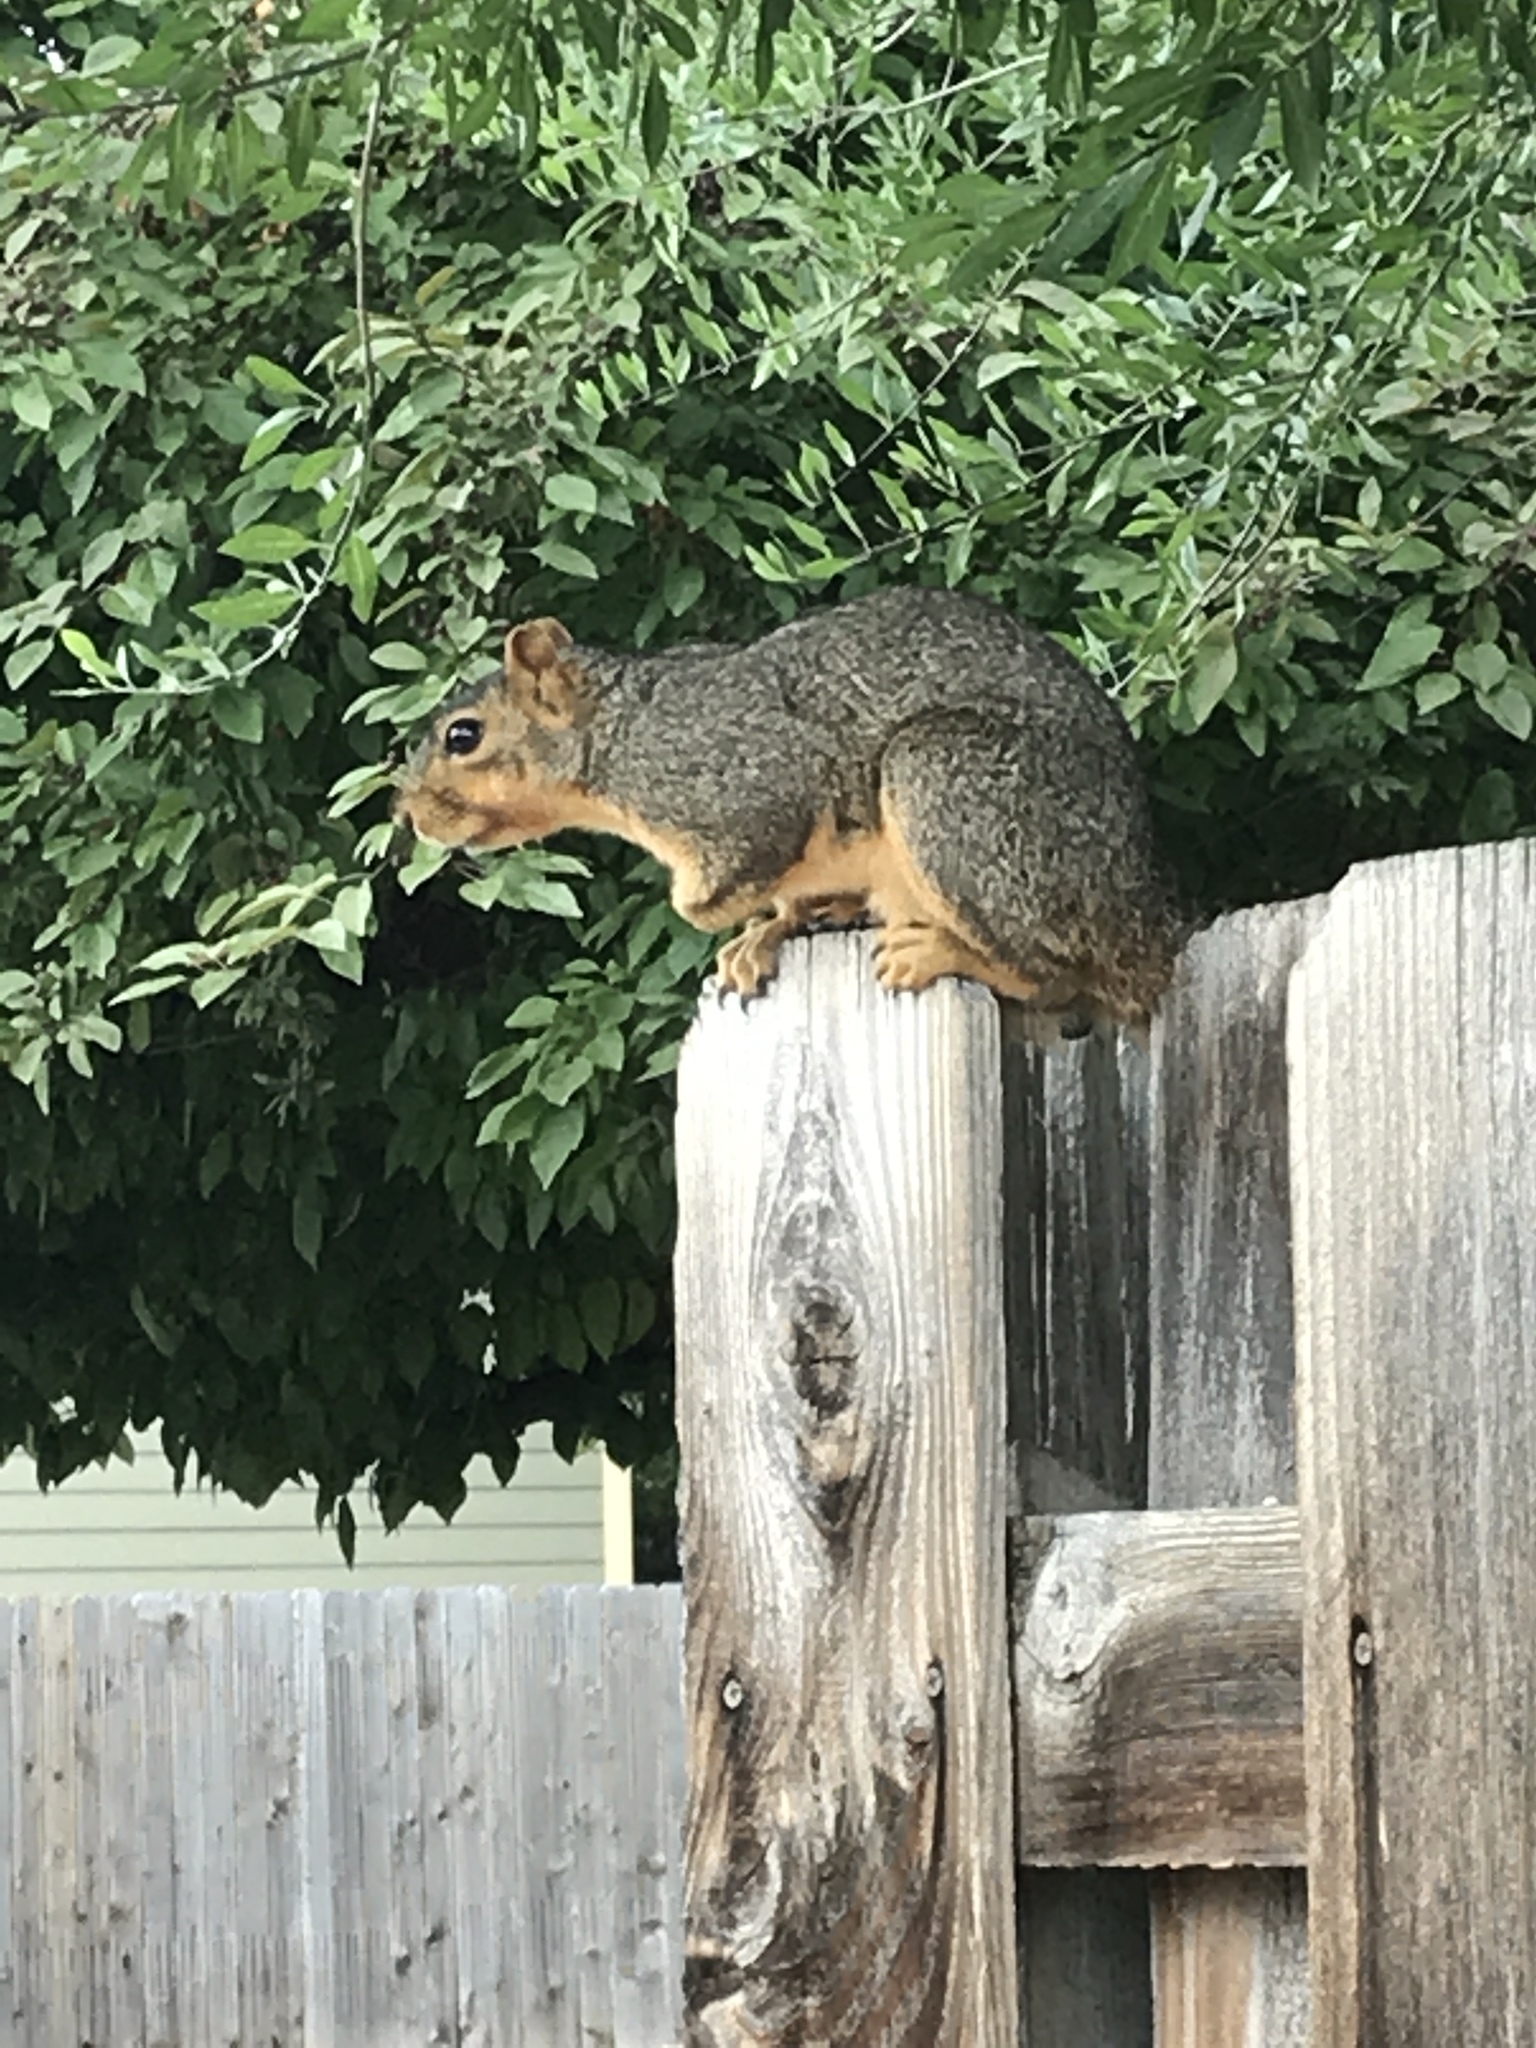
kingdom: Animalia
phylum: Chordata
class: Mammalia
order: Rodentia
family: Sciuridae
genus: Sciurus
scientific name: Sciurus niger
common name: Fox squirrel
